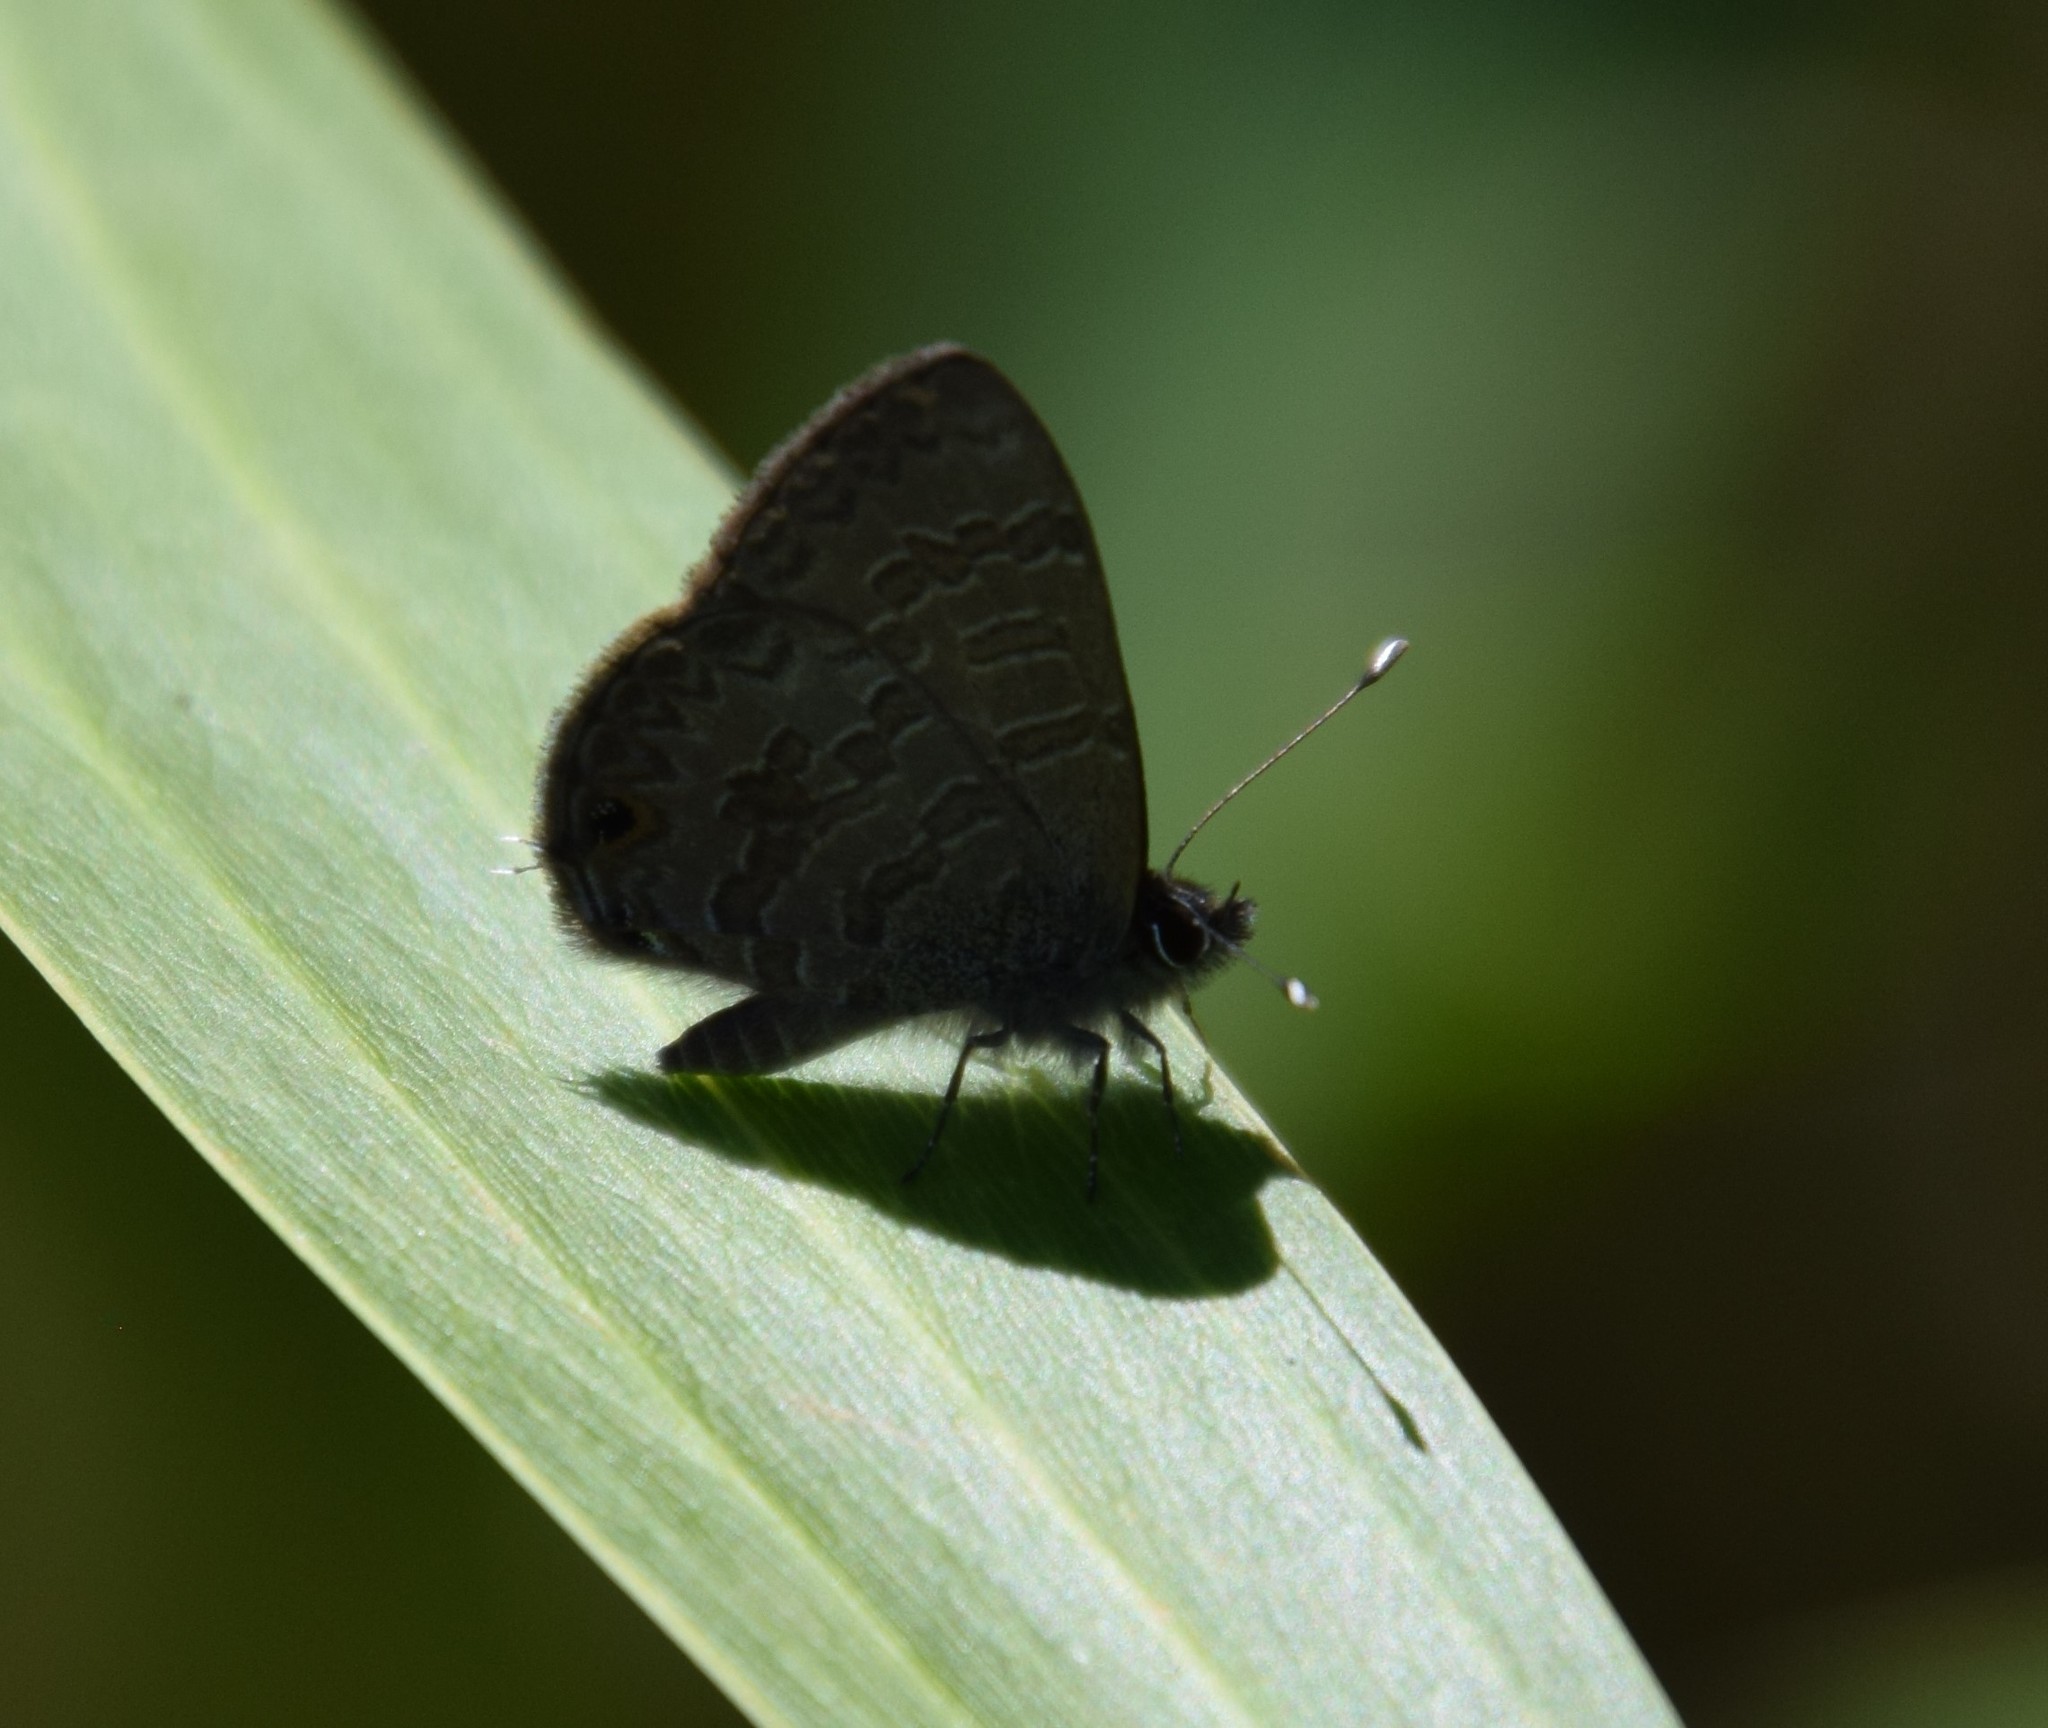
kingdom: Animalia
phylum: Arthropoda
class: Insecta
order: Lepidoptera
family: Lycaenidae
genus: Prosotas
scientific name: Prosotas felderi
